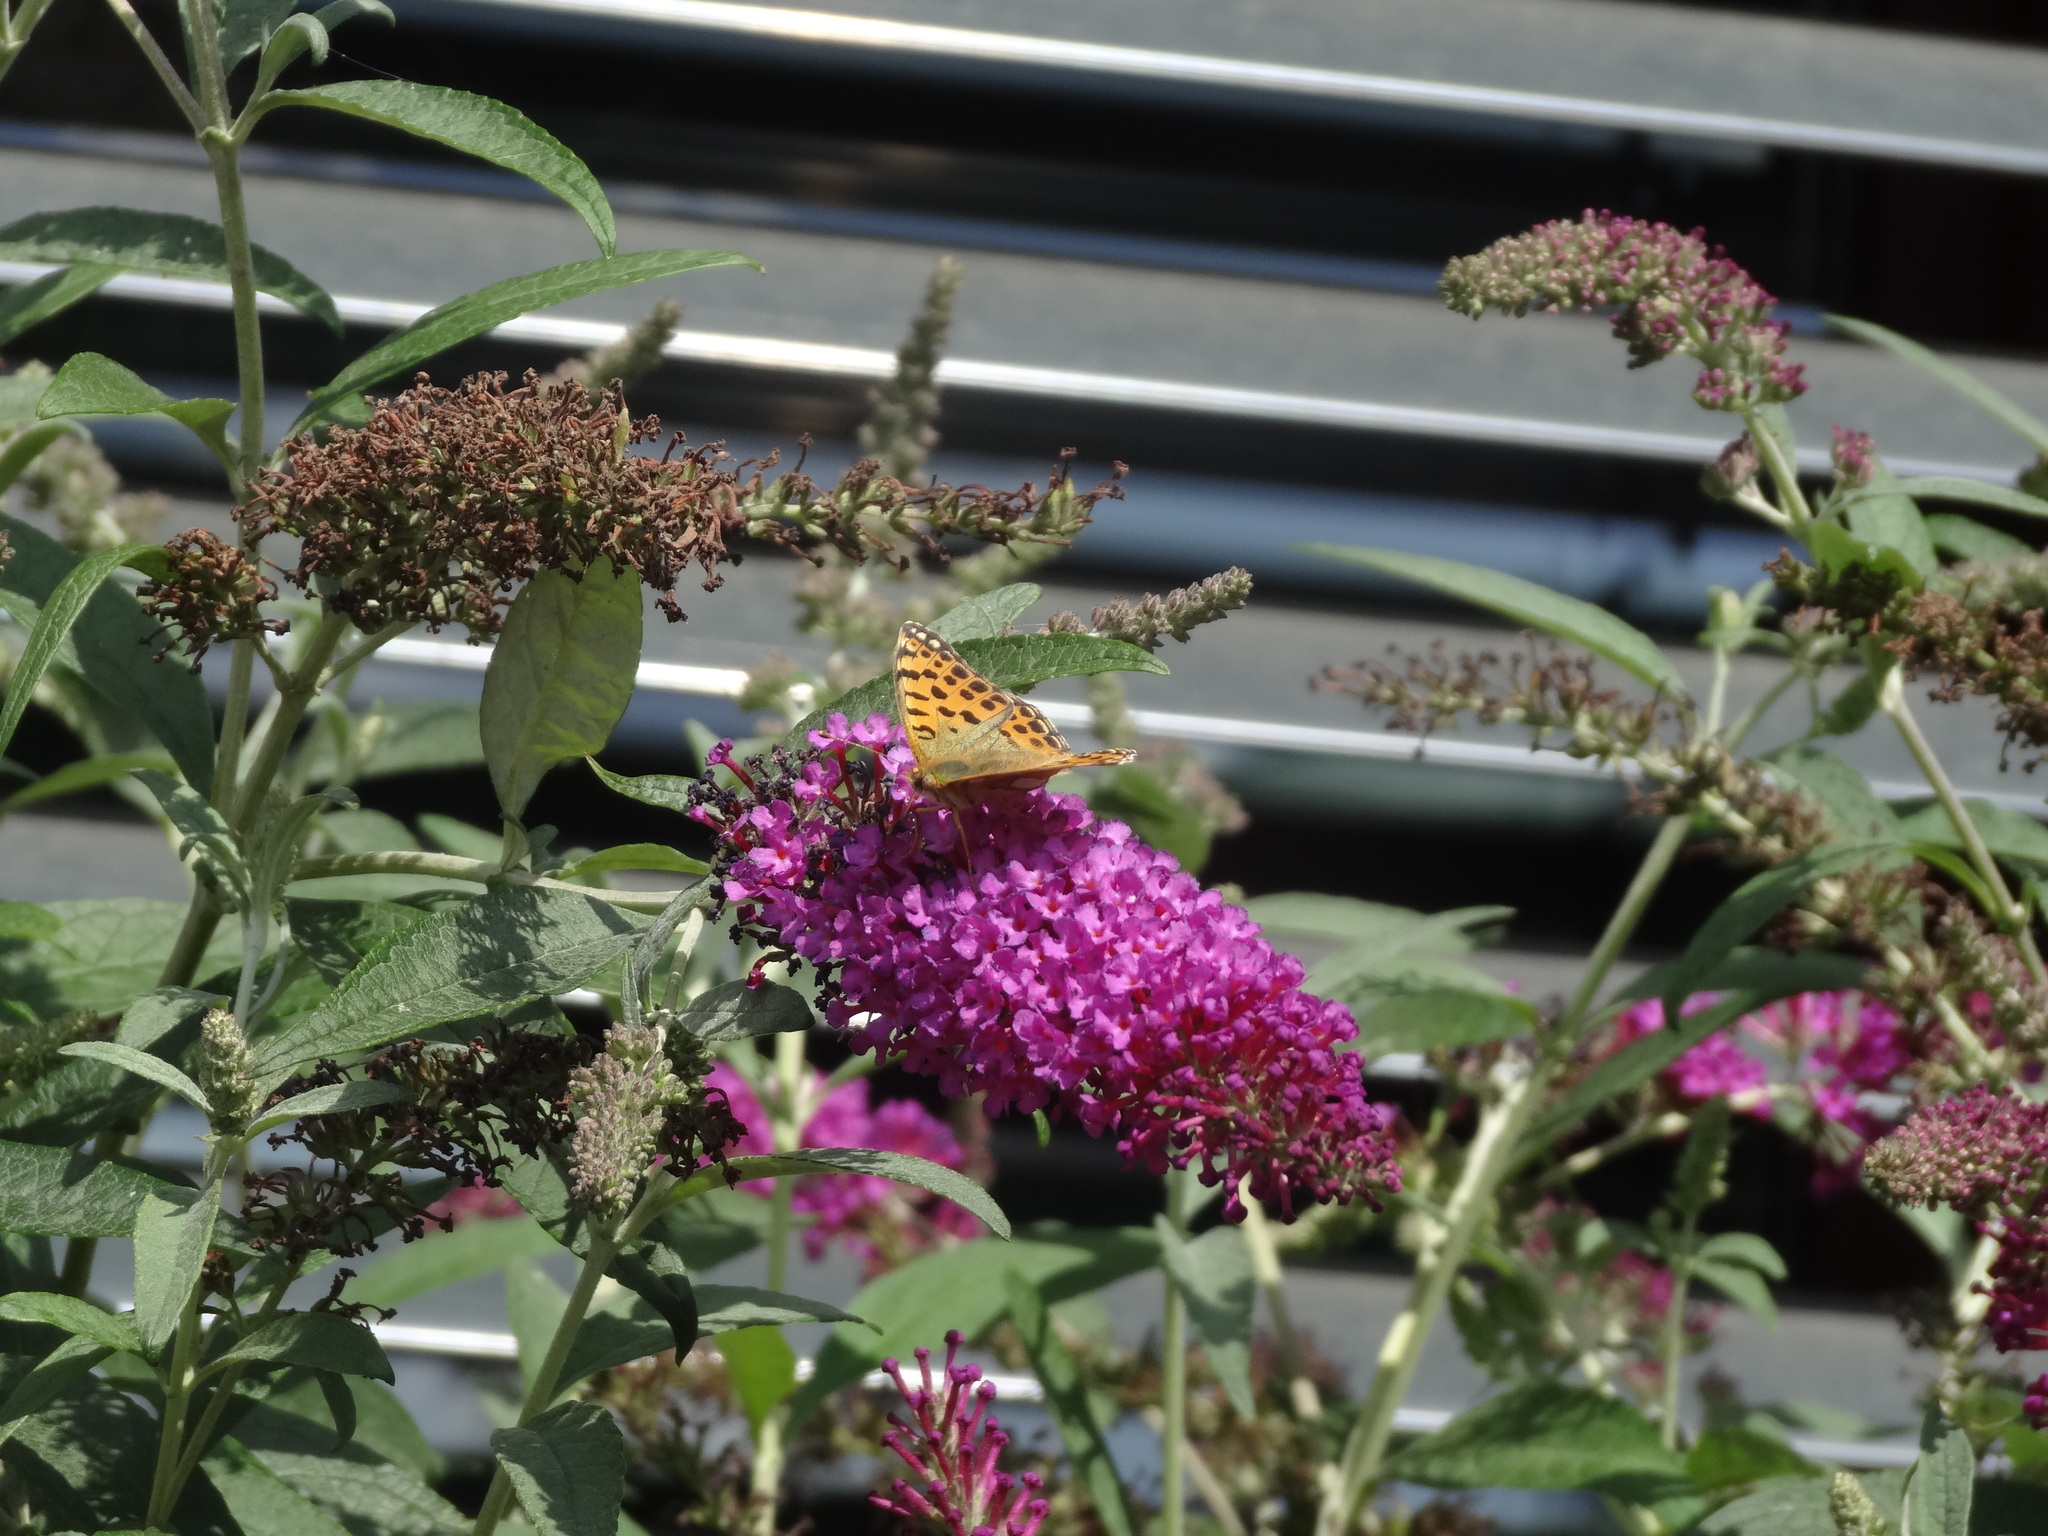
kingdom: Animalia
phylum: Arthropoda
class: Insecta
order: Lepidoptera
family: Nymphalidae
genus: Issoria
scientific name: Issoria lathonia
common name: Queen of spain fritillary
